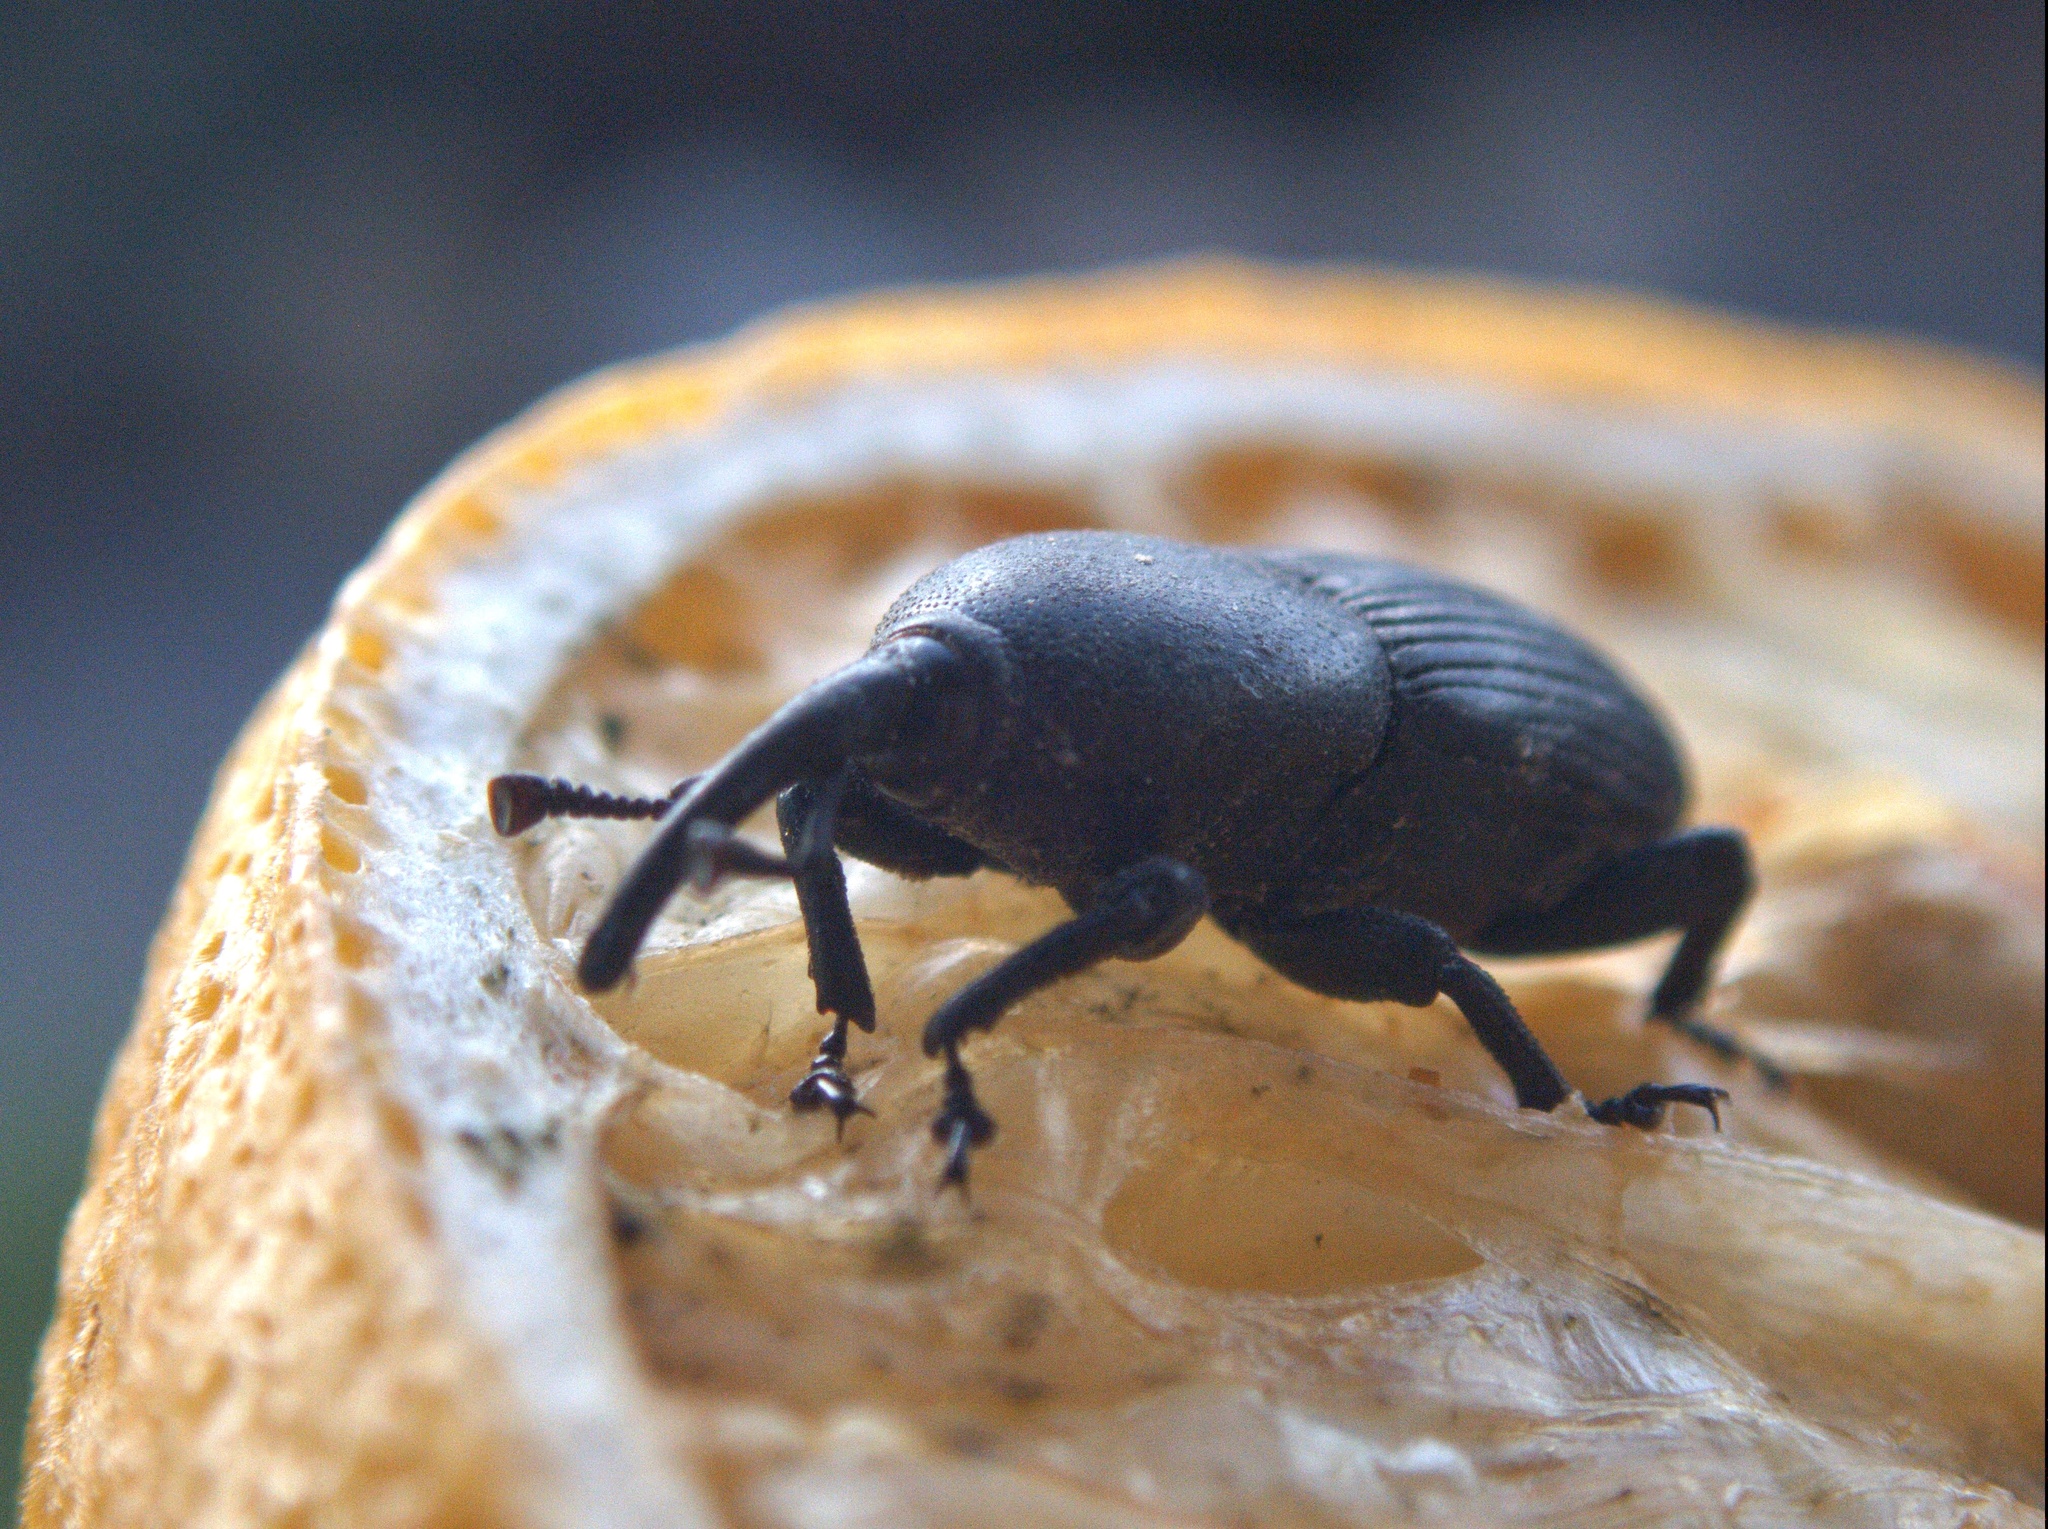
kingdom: Animalia
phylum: Arthropoda
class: Insecta
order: Coleoptera
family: Dryophthoridae
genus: Scyphophorus
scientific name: Scyphophorus acupunctatus
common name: Weevil
